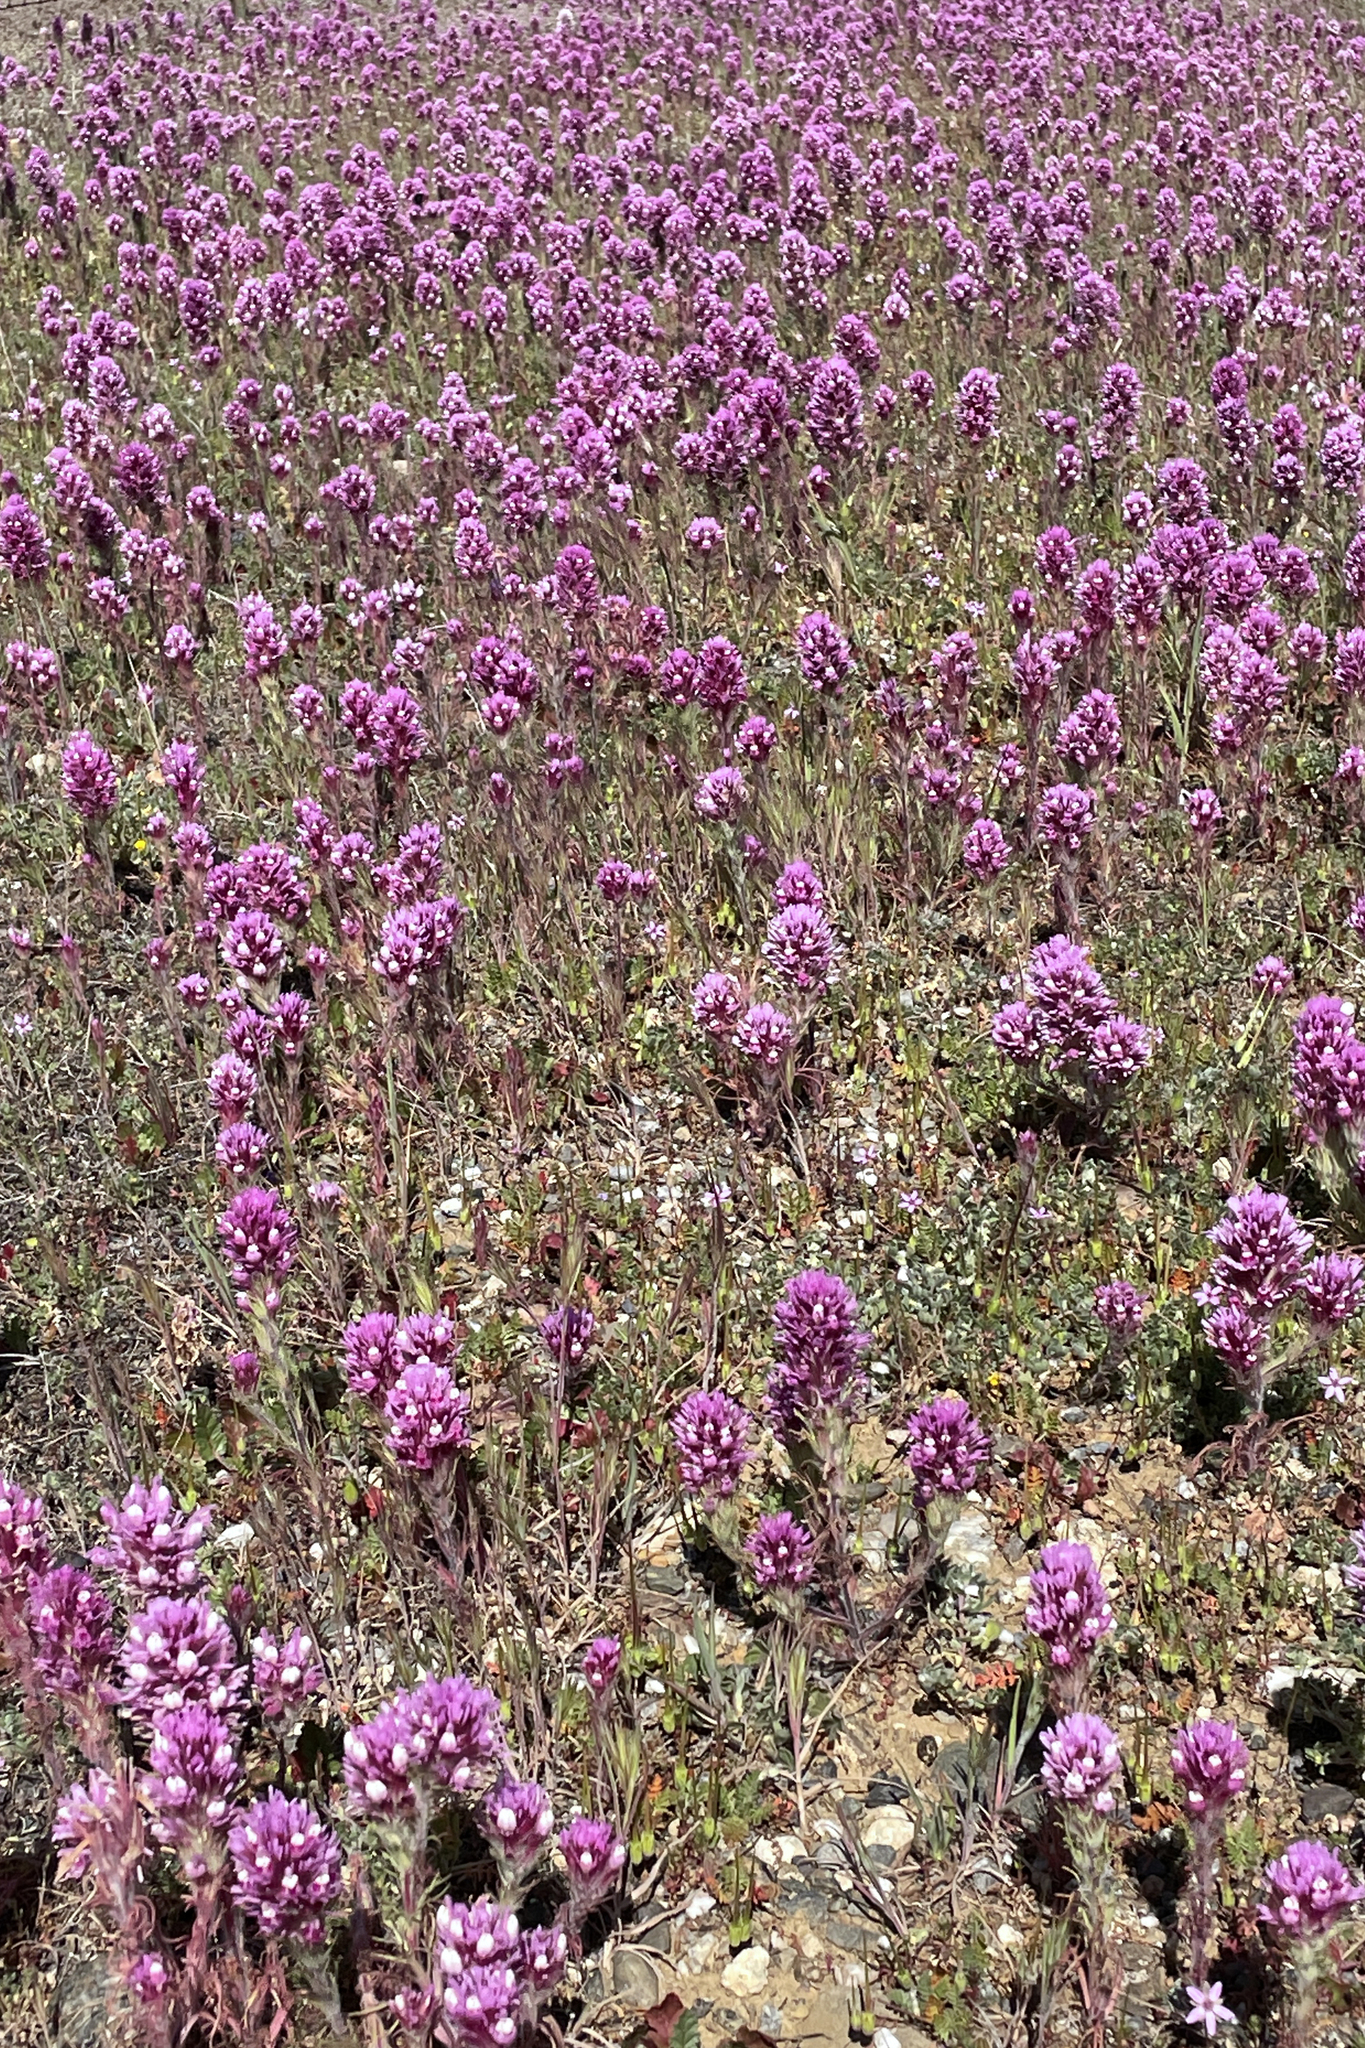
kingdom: Plantae
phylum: Tracheophyta
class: Magnoliopsida
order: Lamiales
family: Orobanchaceae
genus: Castilleja
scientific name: Castilleja exserta
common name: Purple owl-clover
